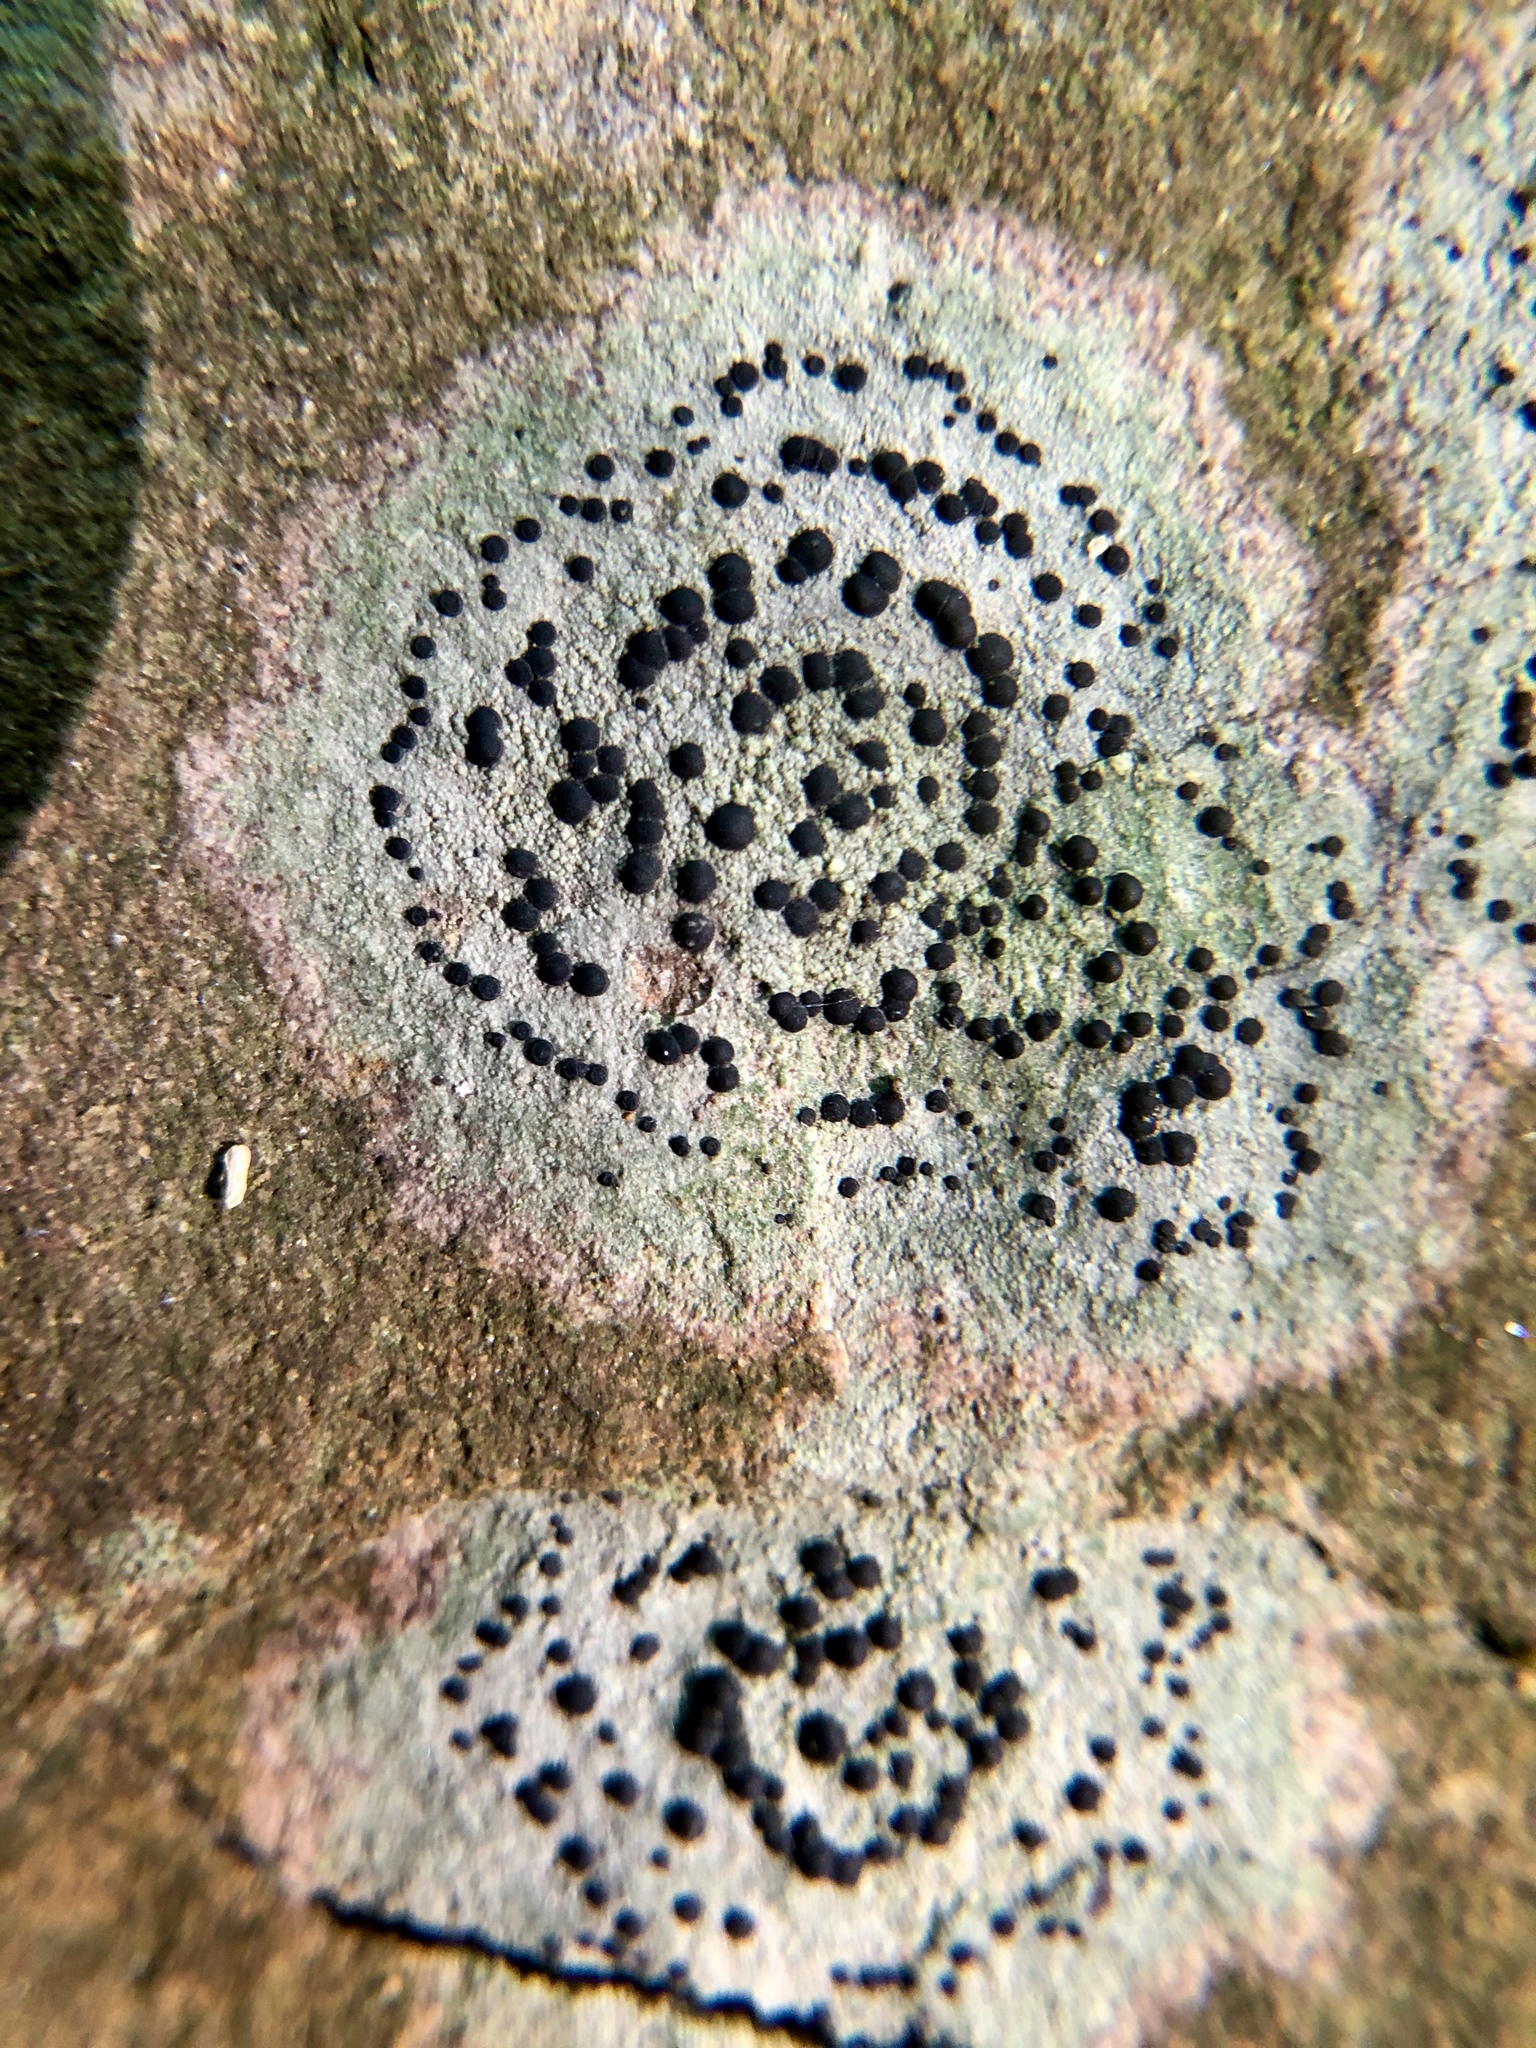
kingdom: Fungi
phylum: Ascomycota
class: Lecanoromycetes
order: Lecideales
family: Lecideaceae
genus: Porpidia
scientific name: Porpidia crustulata
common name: Concentric boulder lichen
